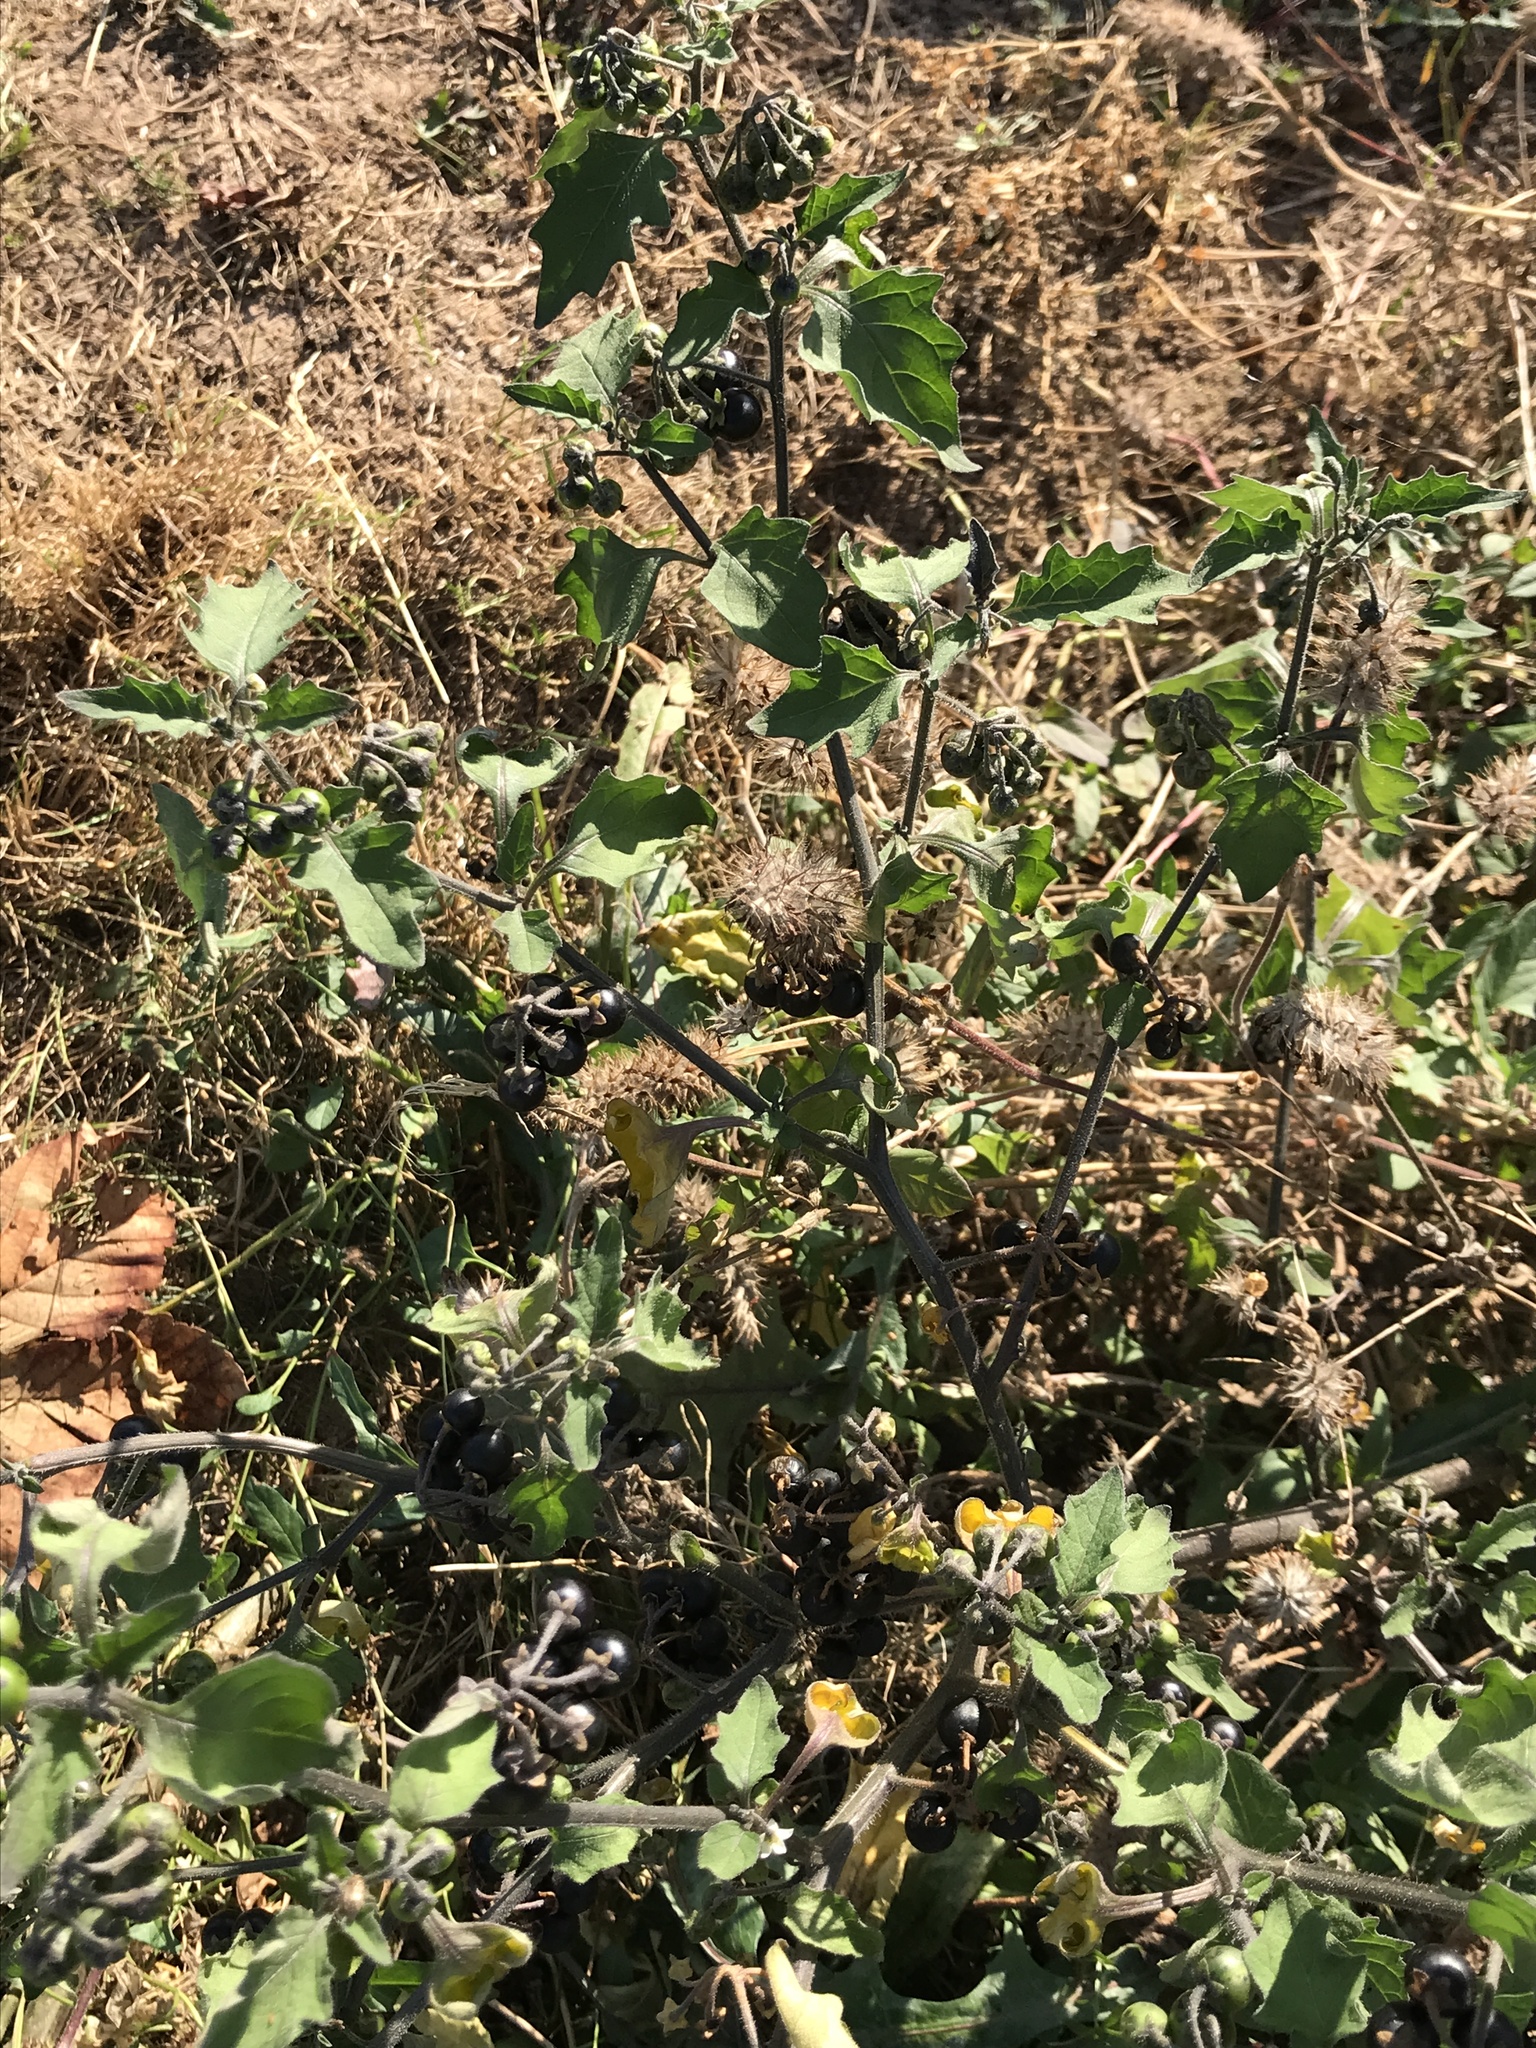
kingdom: Plantae
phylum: Tracheophyta
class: Magnoliopsida
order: Solanales
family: Solanaceae
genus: Solanum
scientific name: Solanum decipiens
